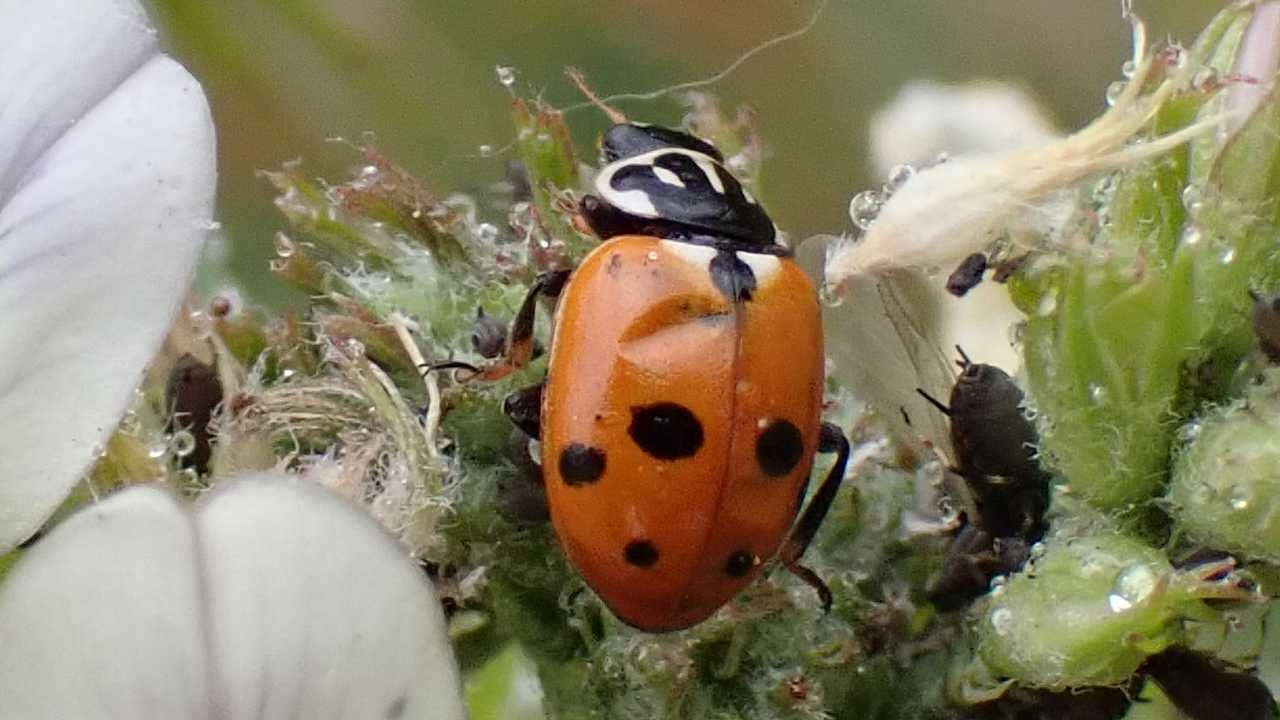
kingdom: Animalia
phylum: Arthropoda
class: Insecta
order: Coleoptera
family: Coccinellidae
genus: Hippodamia
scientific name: Hippodamia variegata
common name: Ladybird beetle
